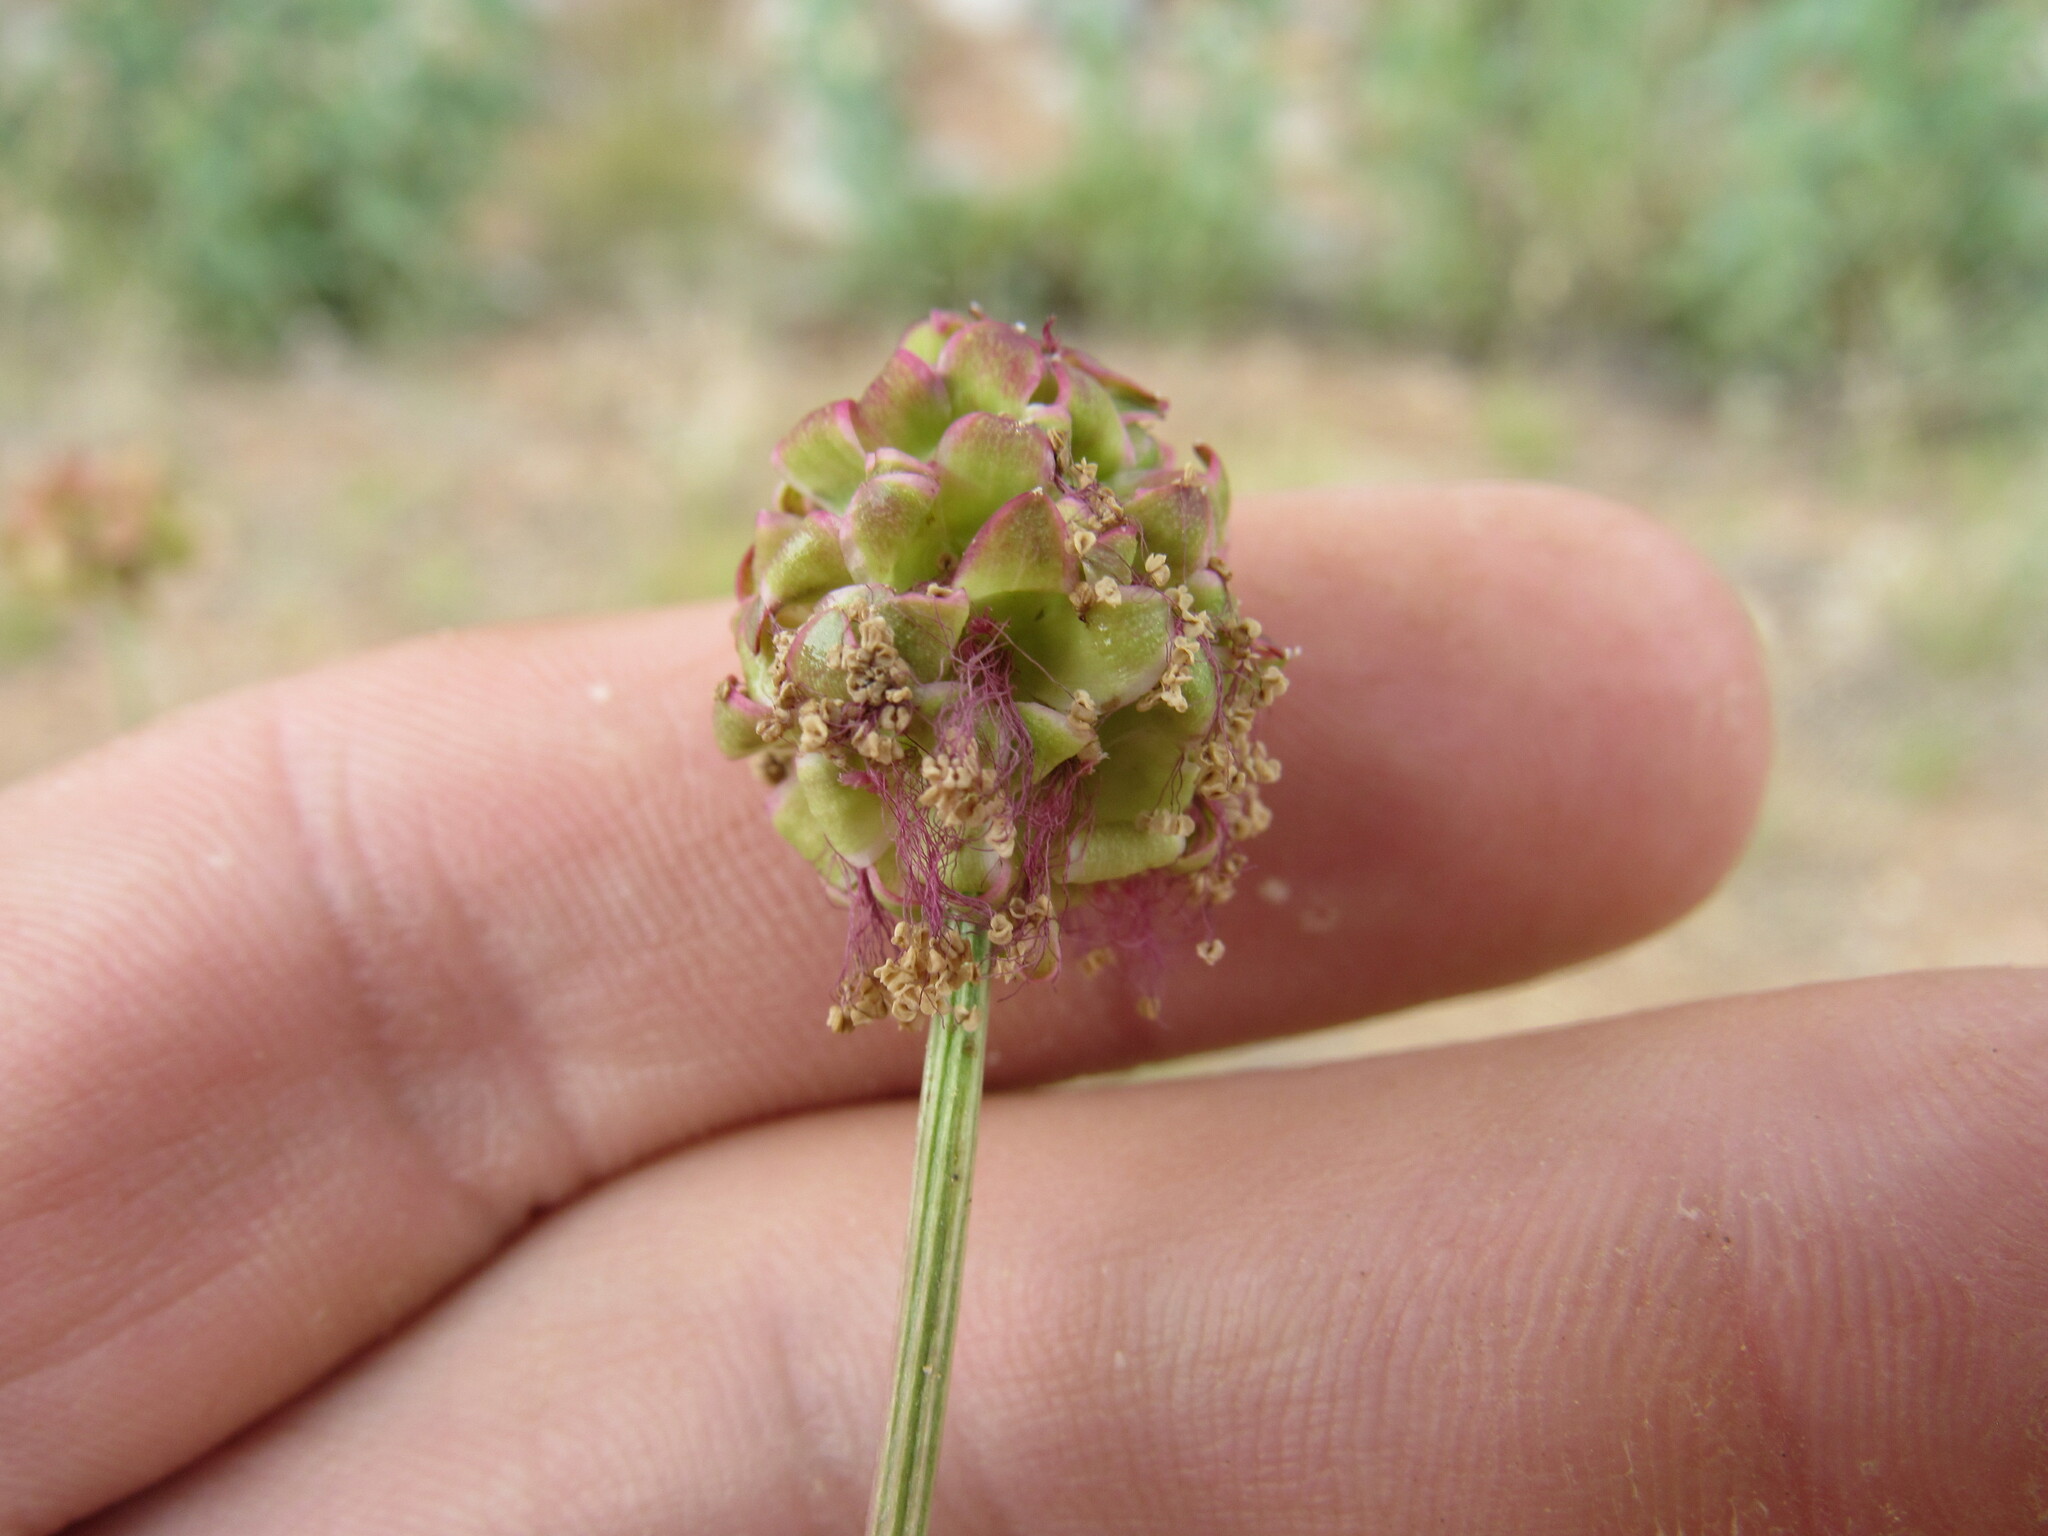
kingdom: Plantae
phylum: Tracheophyta
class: Magnoliopsida
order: Rosales
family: Rosaceae
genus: Poterium
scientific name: Poterium sanguisorba
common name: Salad burnet
